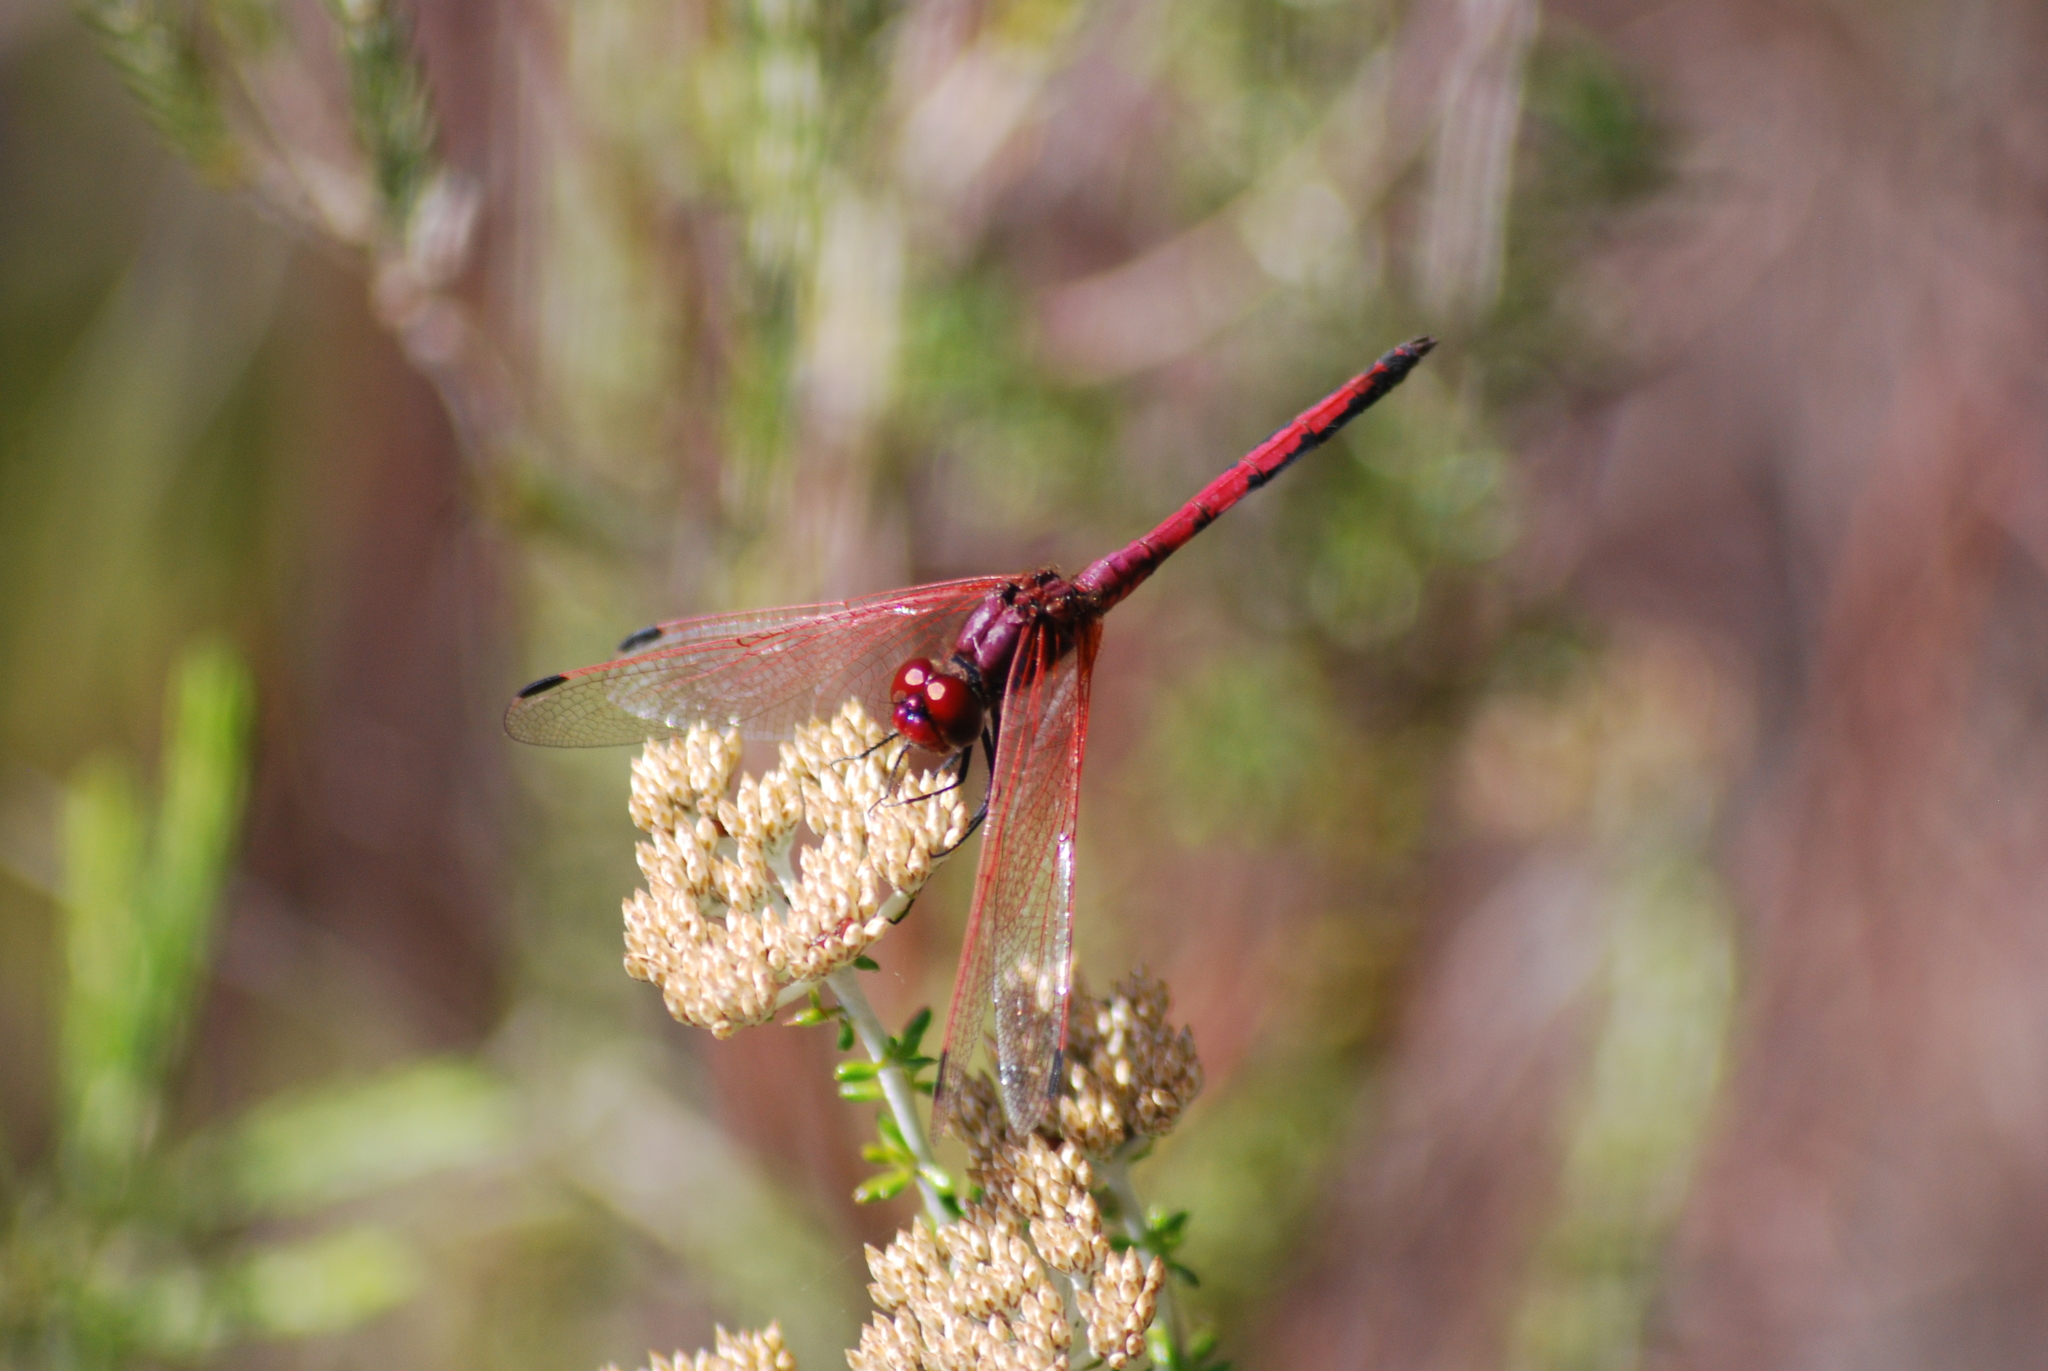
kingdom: Animalia
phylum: Arthropoda
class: Insecta
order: Odonata
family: Libellulidae
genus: Trithemis
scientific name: Trithemis arteriosa
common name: Red-veined dropwing
